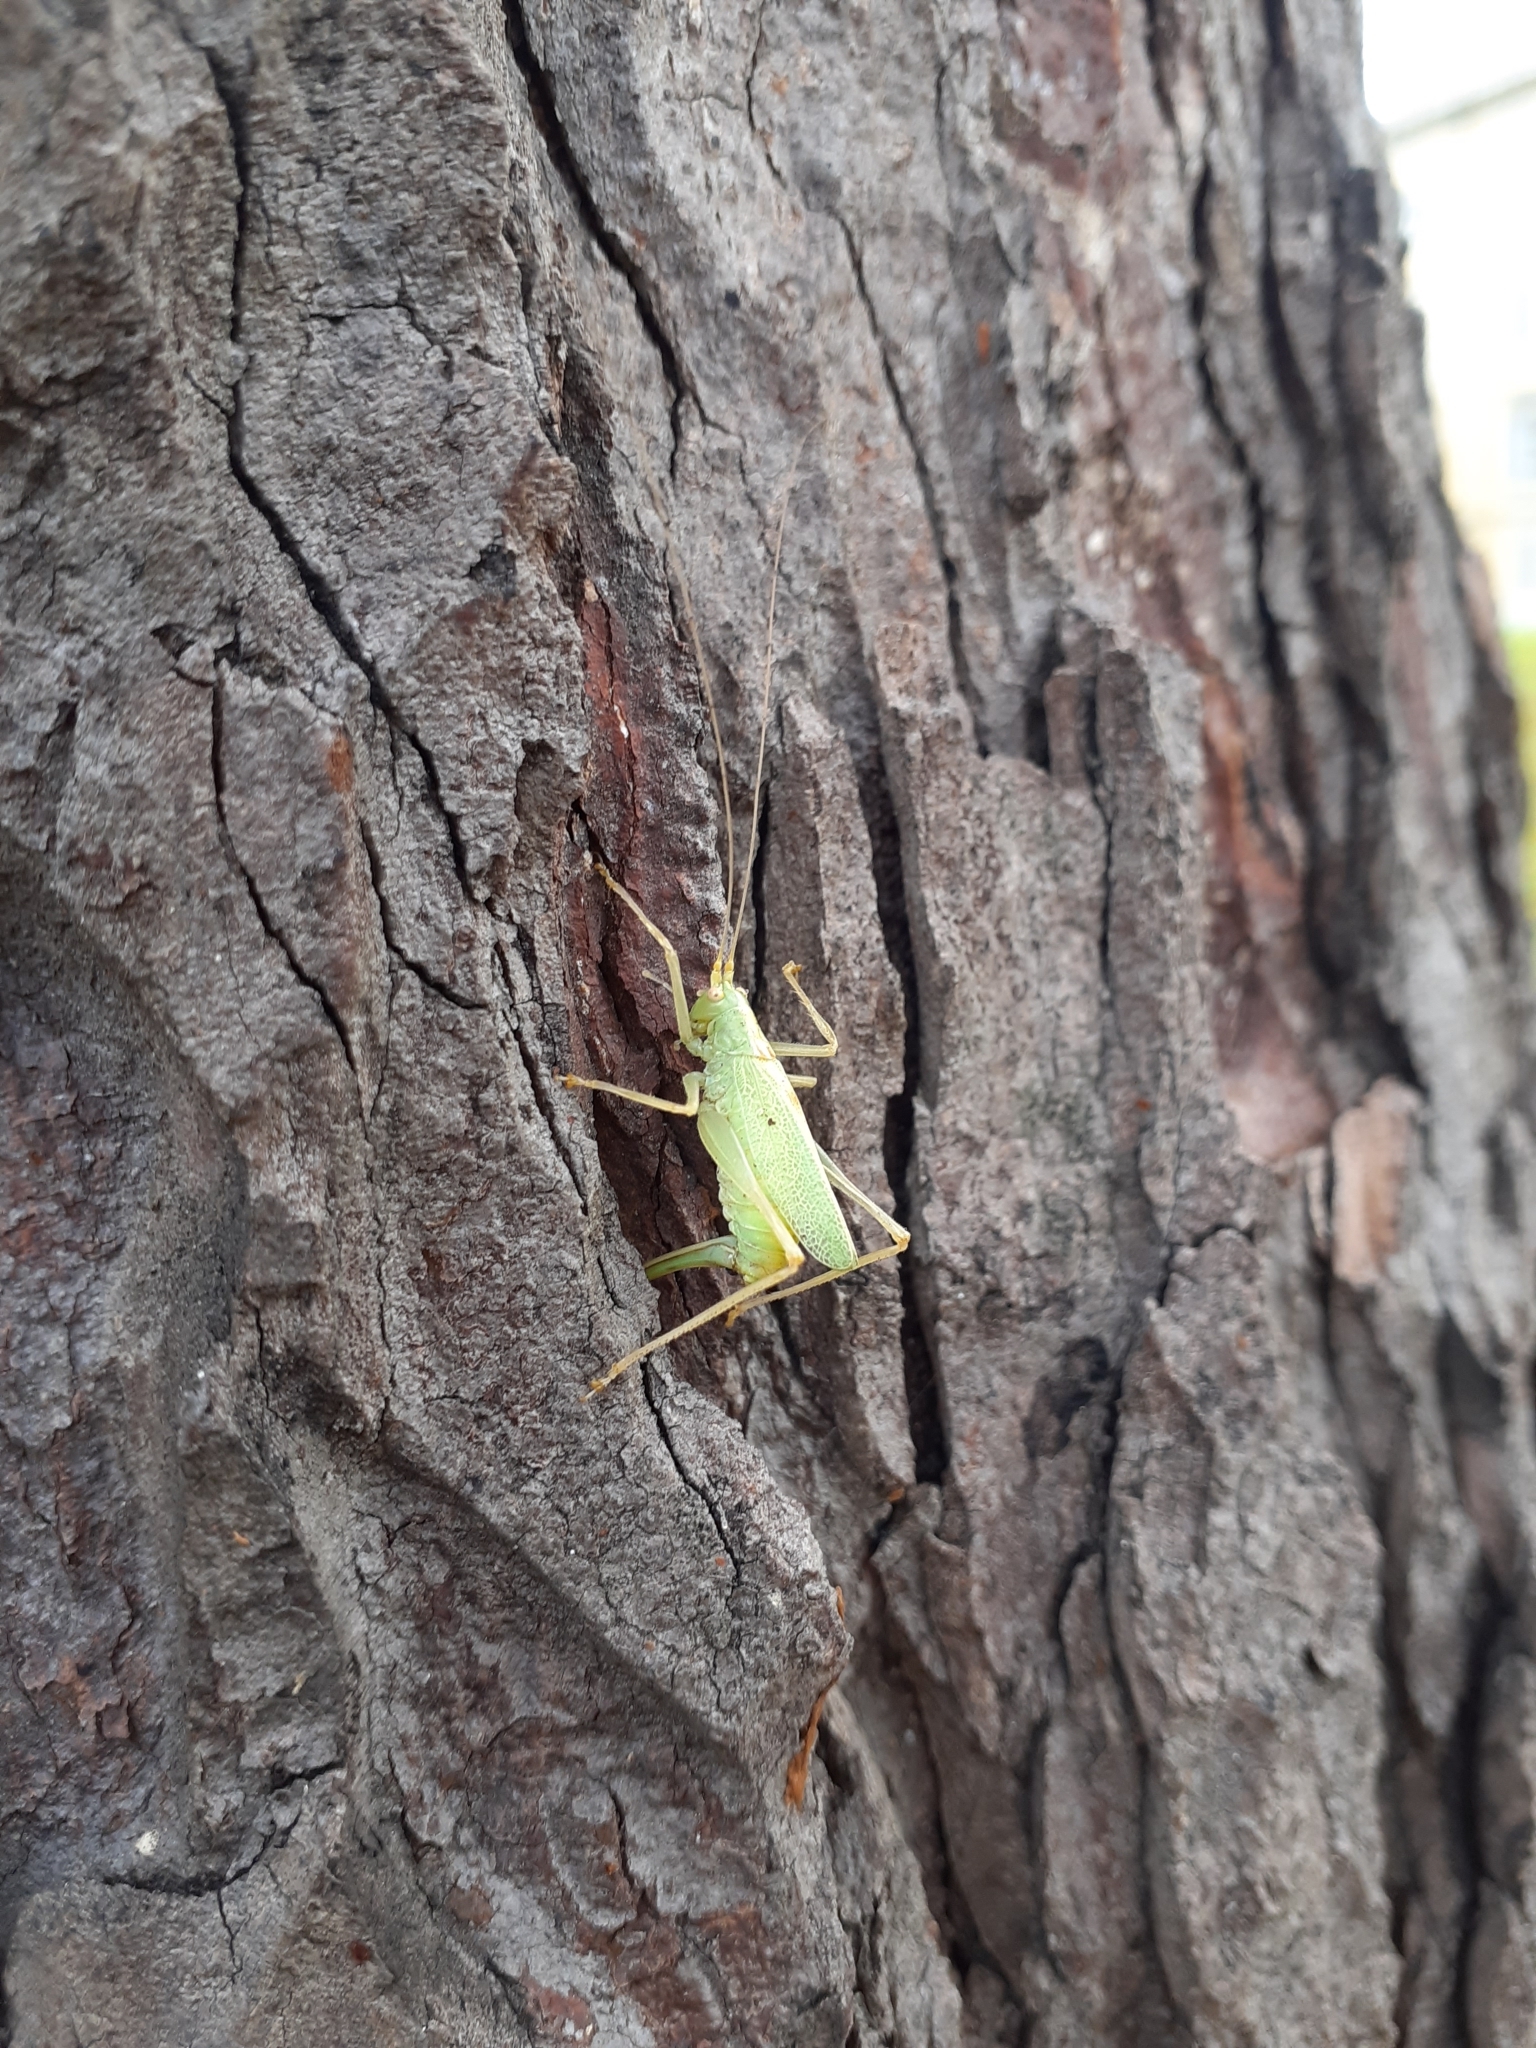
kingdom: Animalia
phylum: Arthropoda
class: Insecta
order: Orthoptera
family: Tettigoniidae
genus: Meconema
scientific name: Meconema thalassinum
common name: Oak bush-cricket
